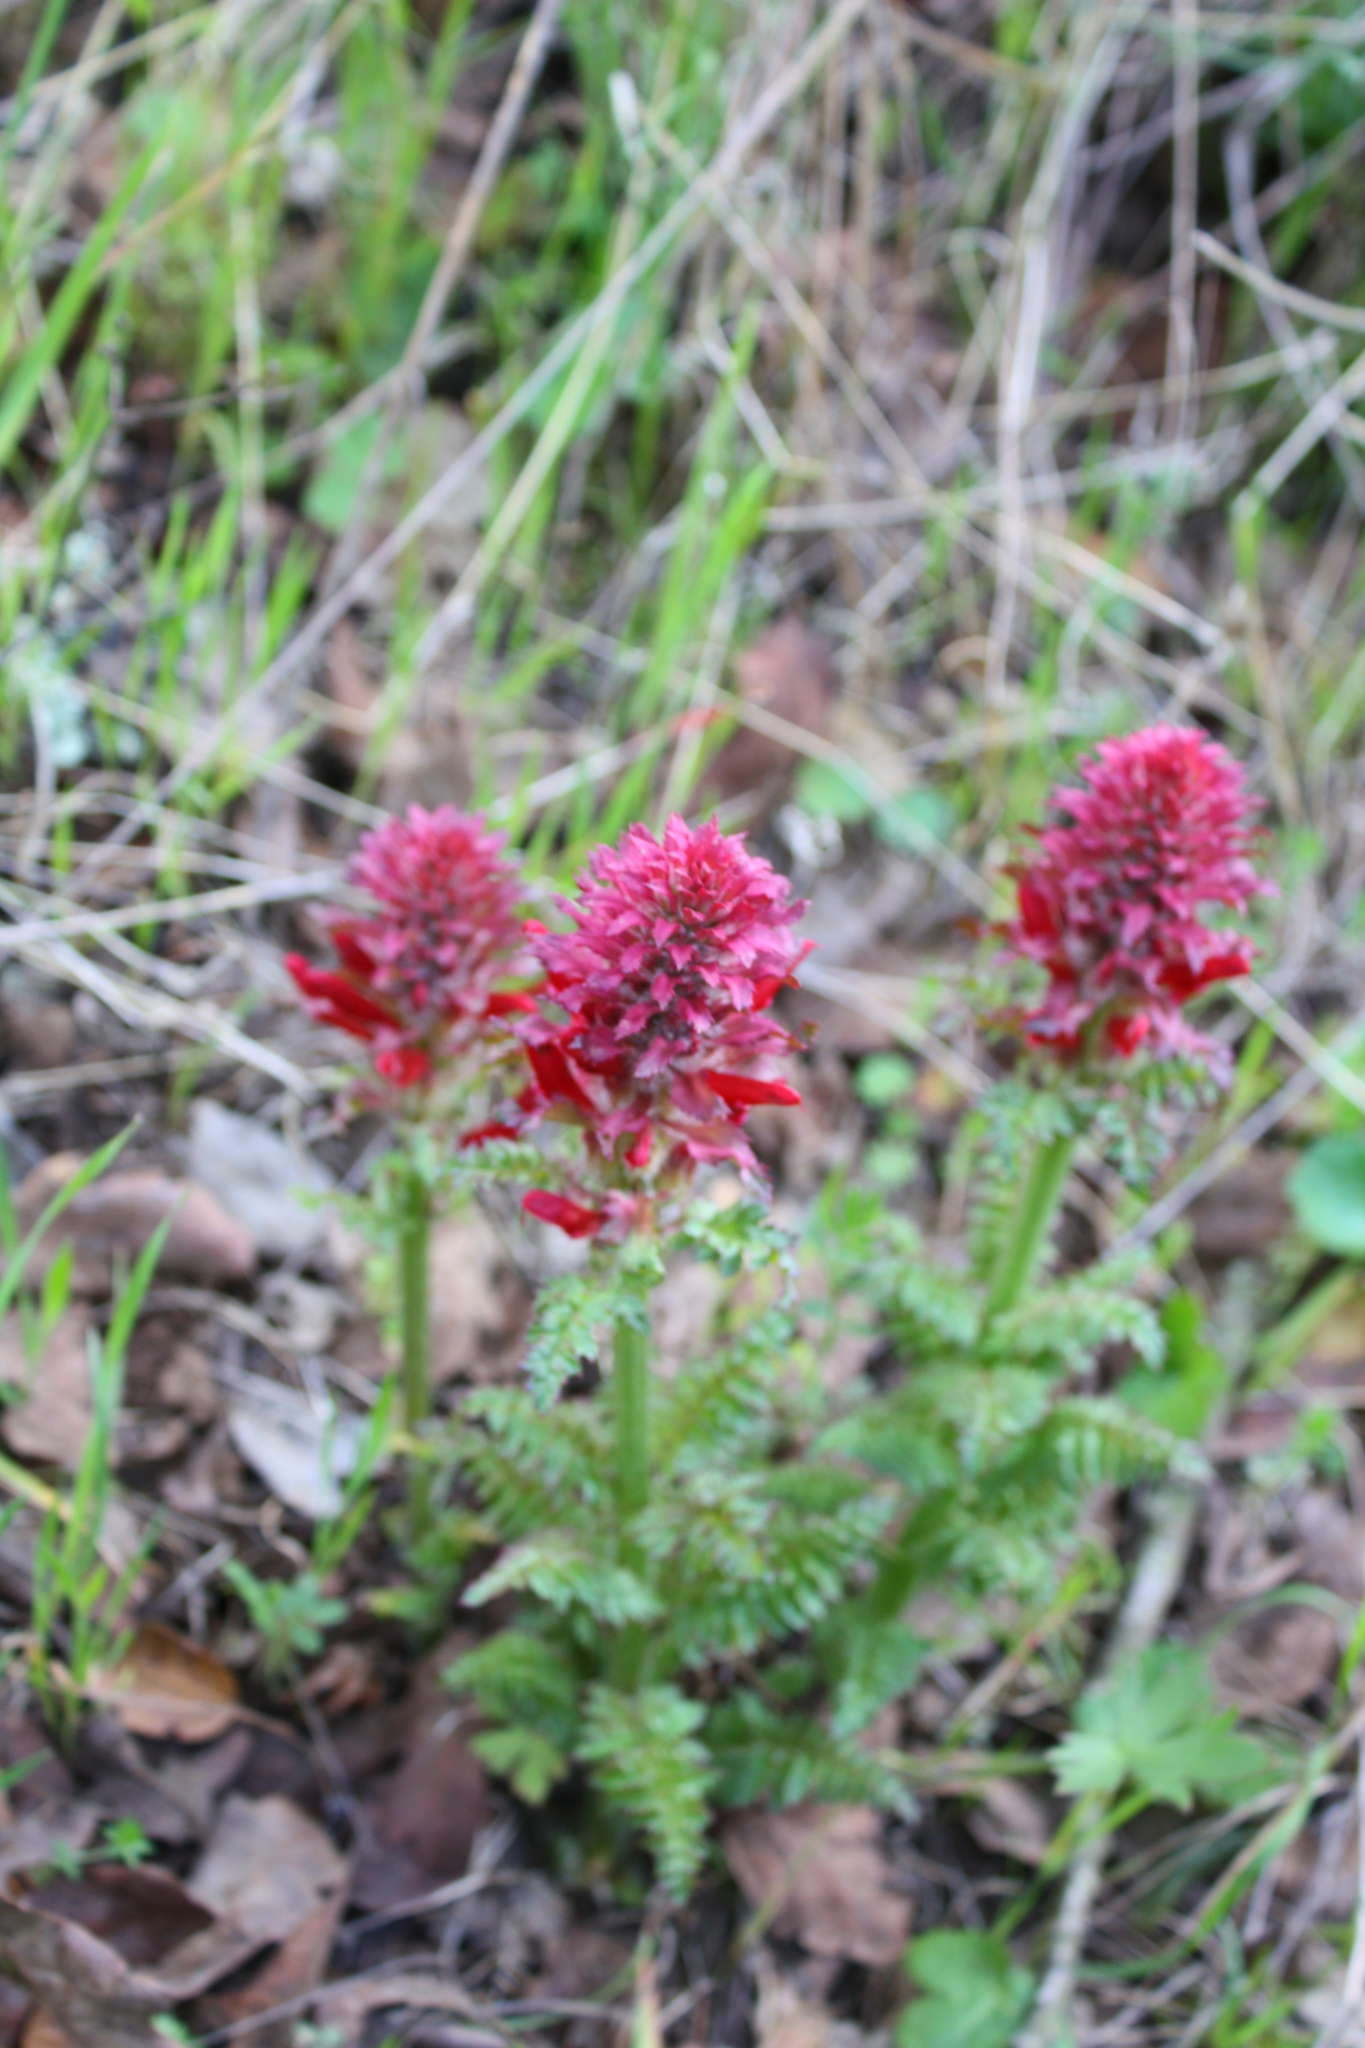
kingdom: Plantae
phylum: Tracheophyta
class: Magnoliopsida
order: Lamiales
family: Orobanchaceae
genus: Pedicularis
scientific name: Pedicularis densiflora
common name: Indian warrior
